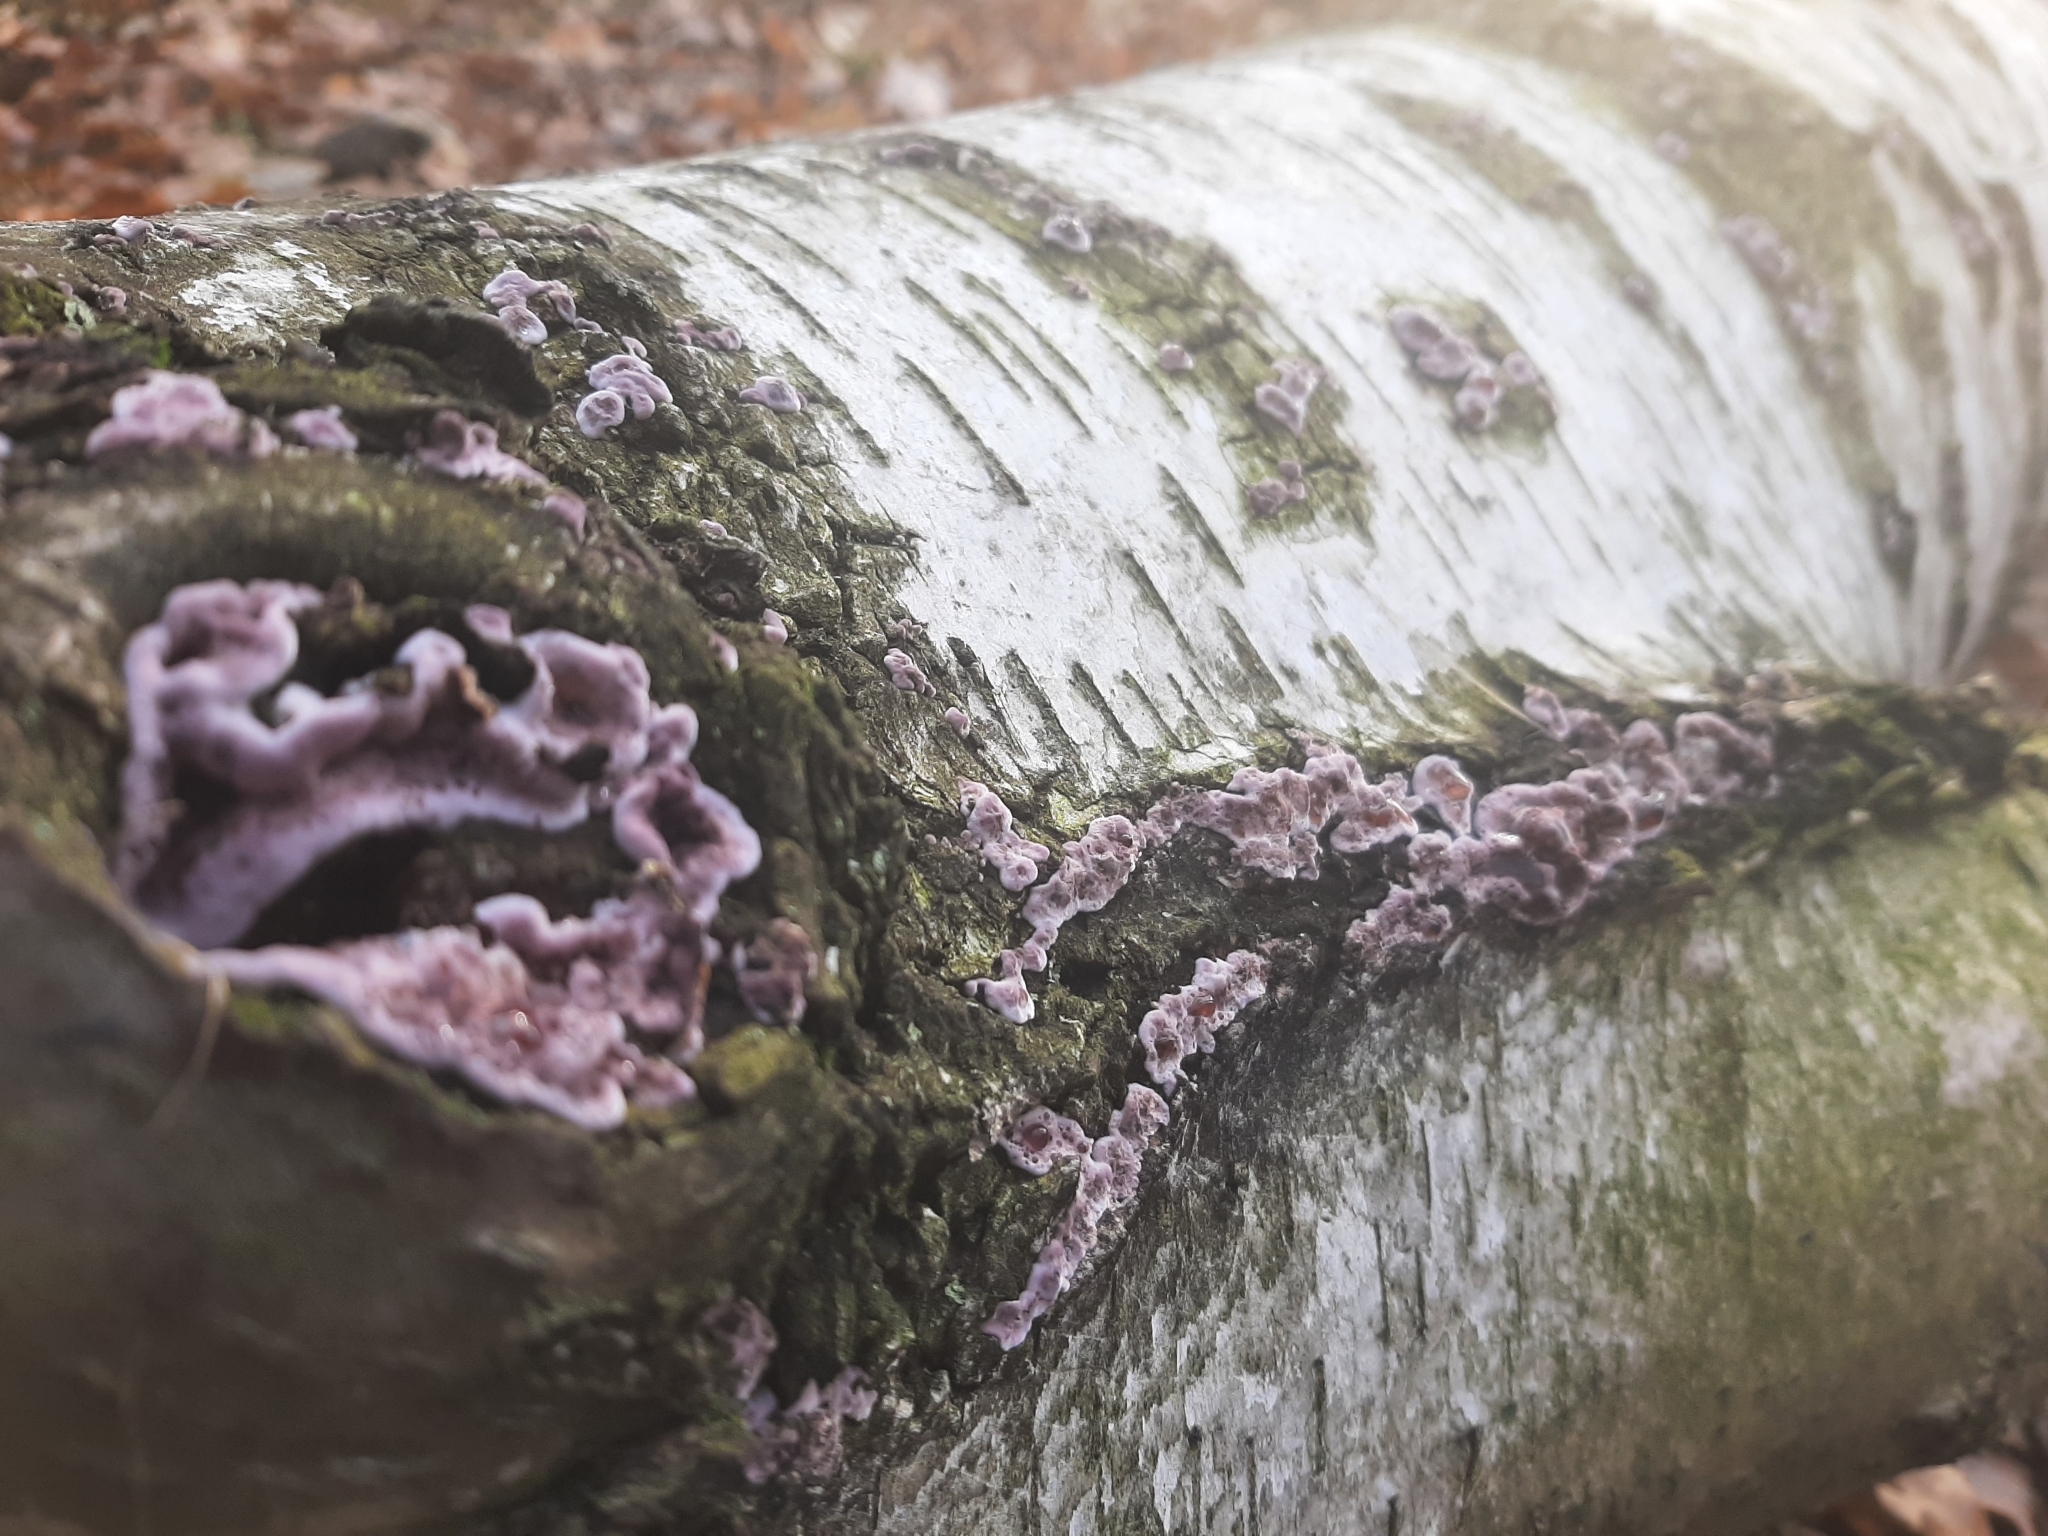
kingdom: Fungi
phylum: Basidiomycota
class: Agaricomycetes
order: Agaricales
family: Cyphellaceae
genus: Chondrostereum
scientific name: Chondrostereum purpureum
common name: Silver leaf disease
